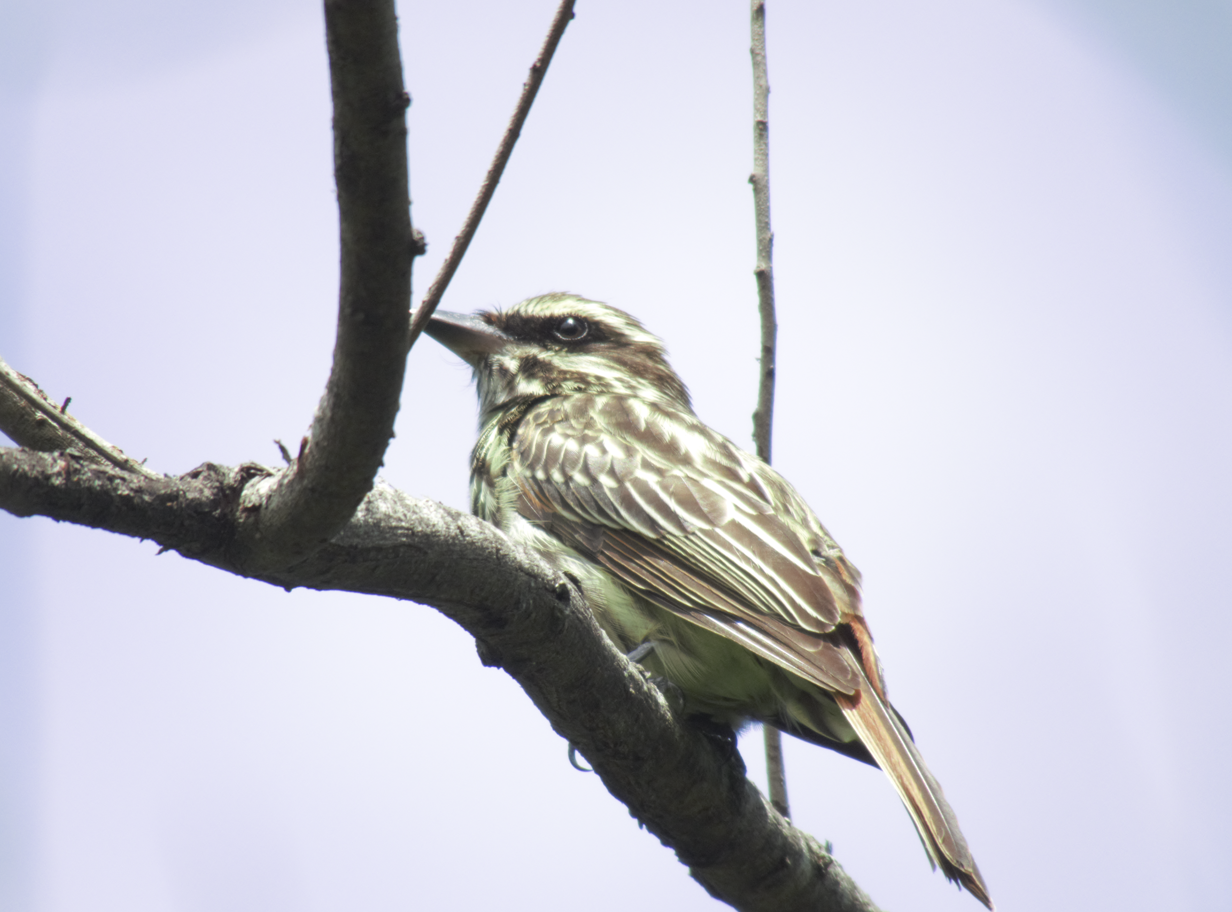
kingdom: Animalia
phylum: Chordata
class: Aves
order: Passeriformes
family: Tyrannidae
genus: Myiodynastes
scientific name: Myiodynastes maculatus
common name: Streaked flycatcher
